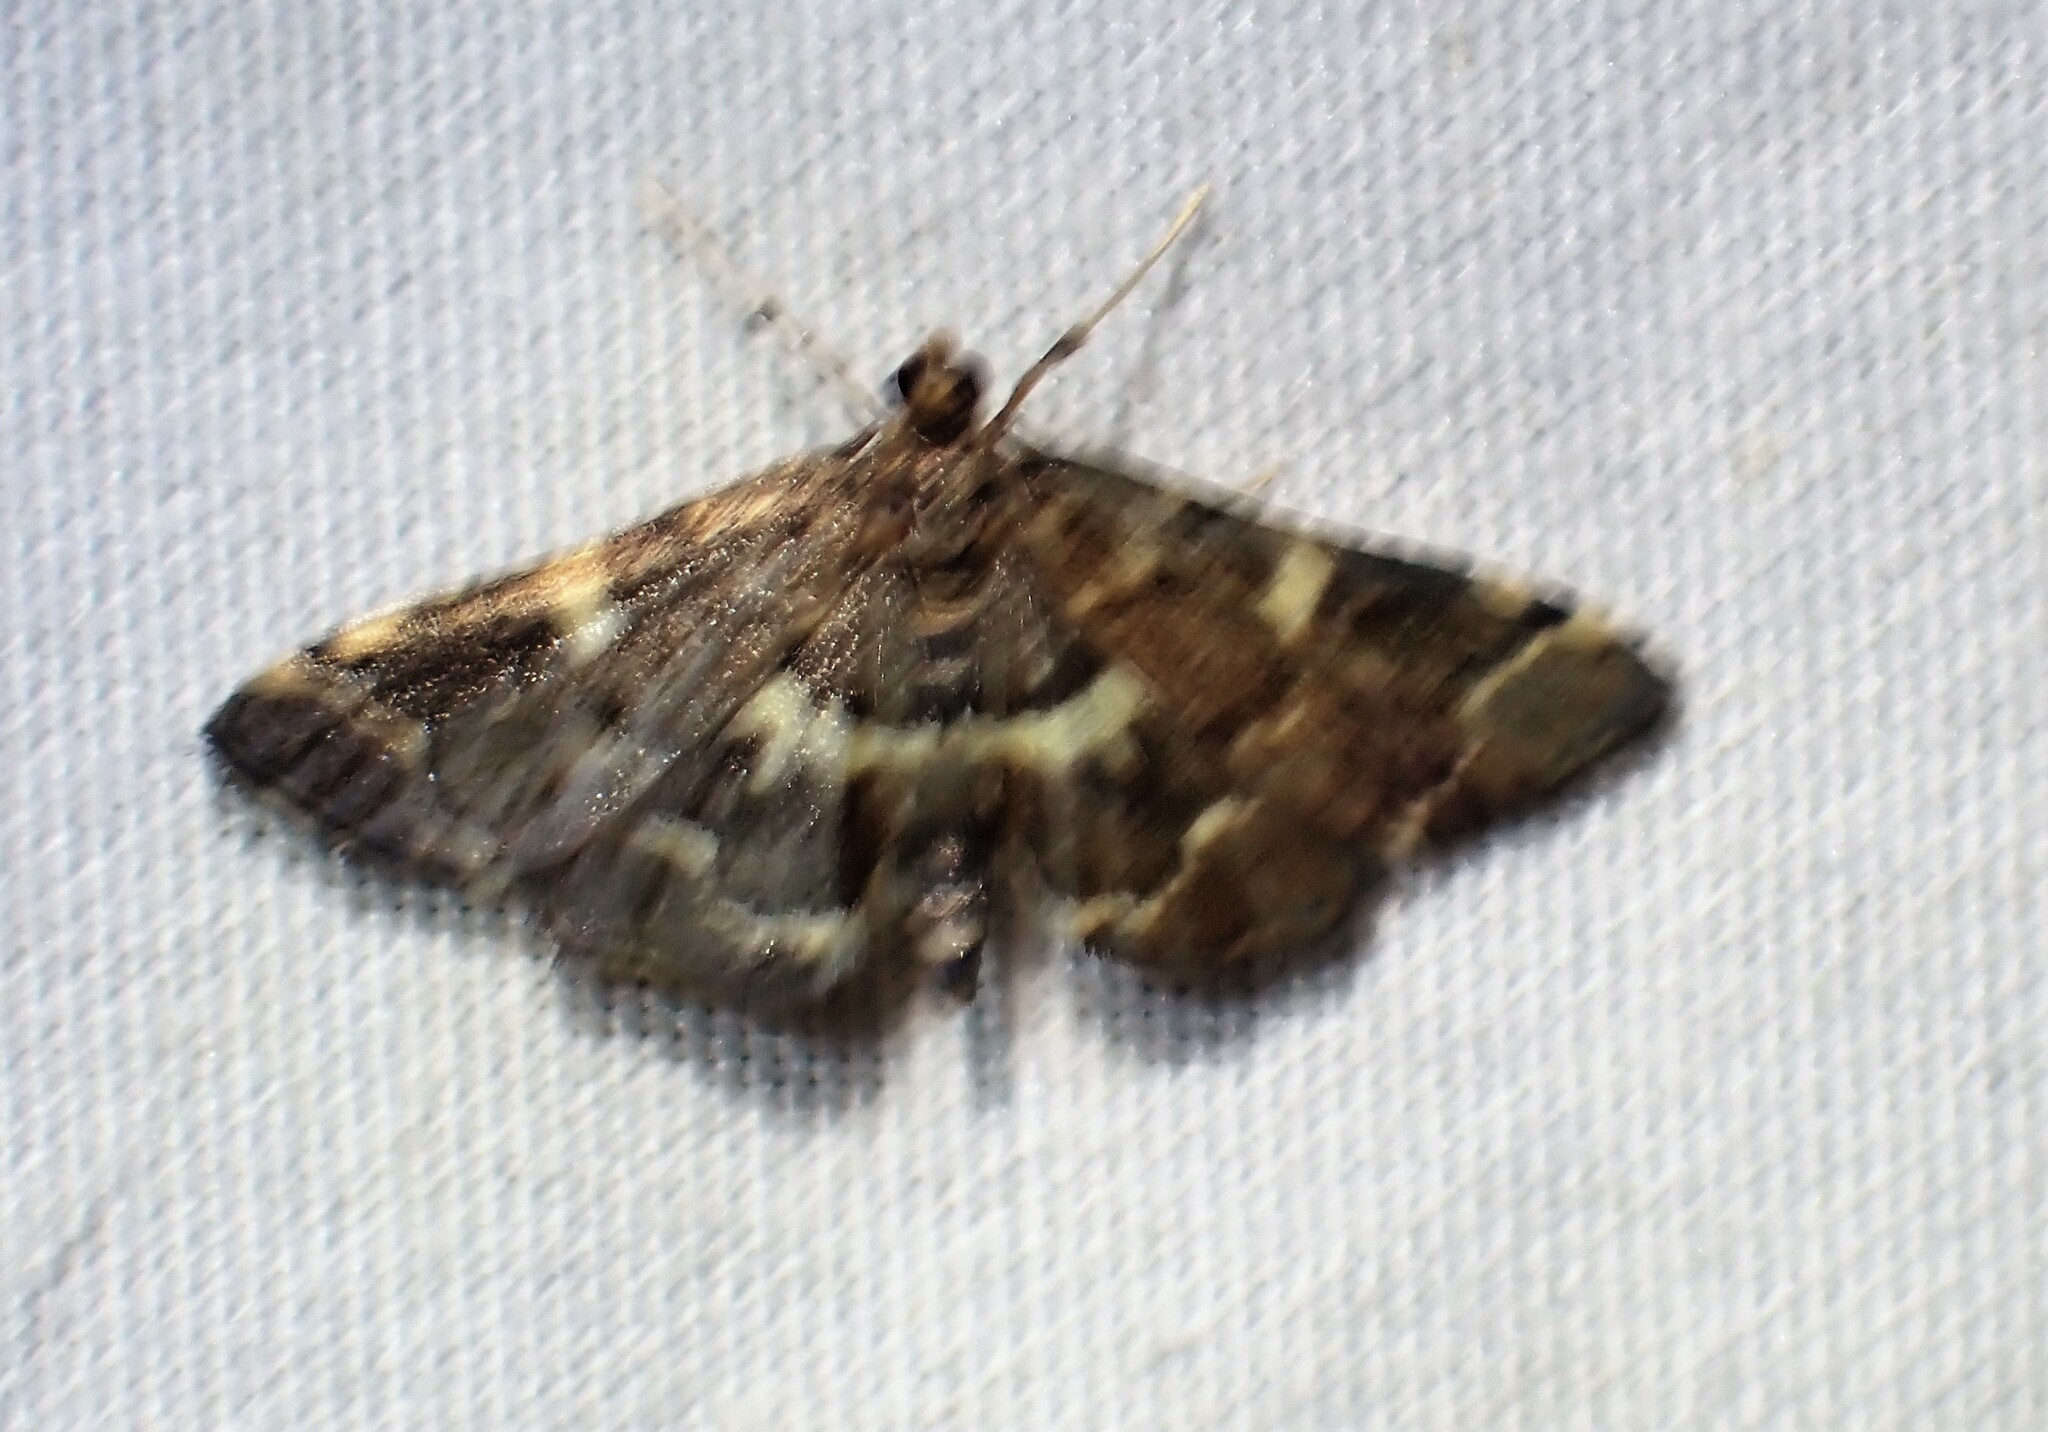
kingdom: Animalia
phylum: Arthropoda
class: Insecta
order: Lepidoptera
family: Crambidae
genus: Anageshna
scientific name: Anageshna primordialis
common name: Yellow-spotted webworm moth
